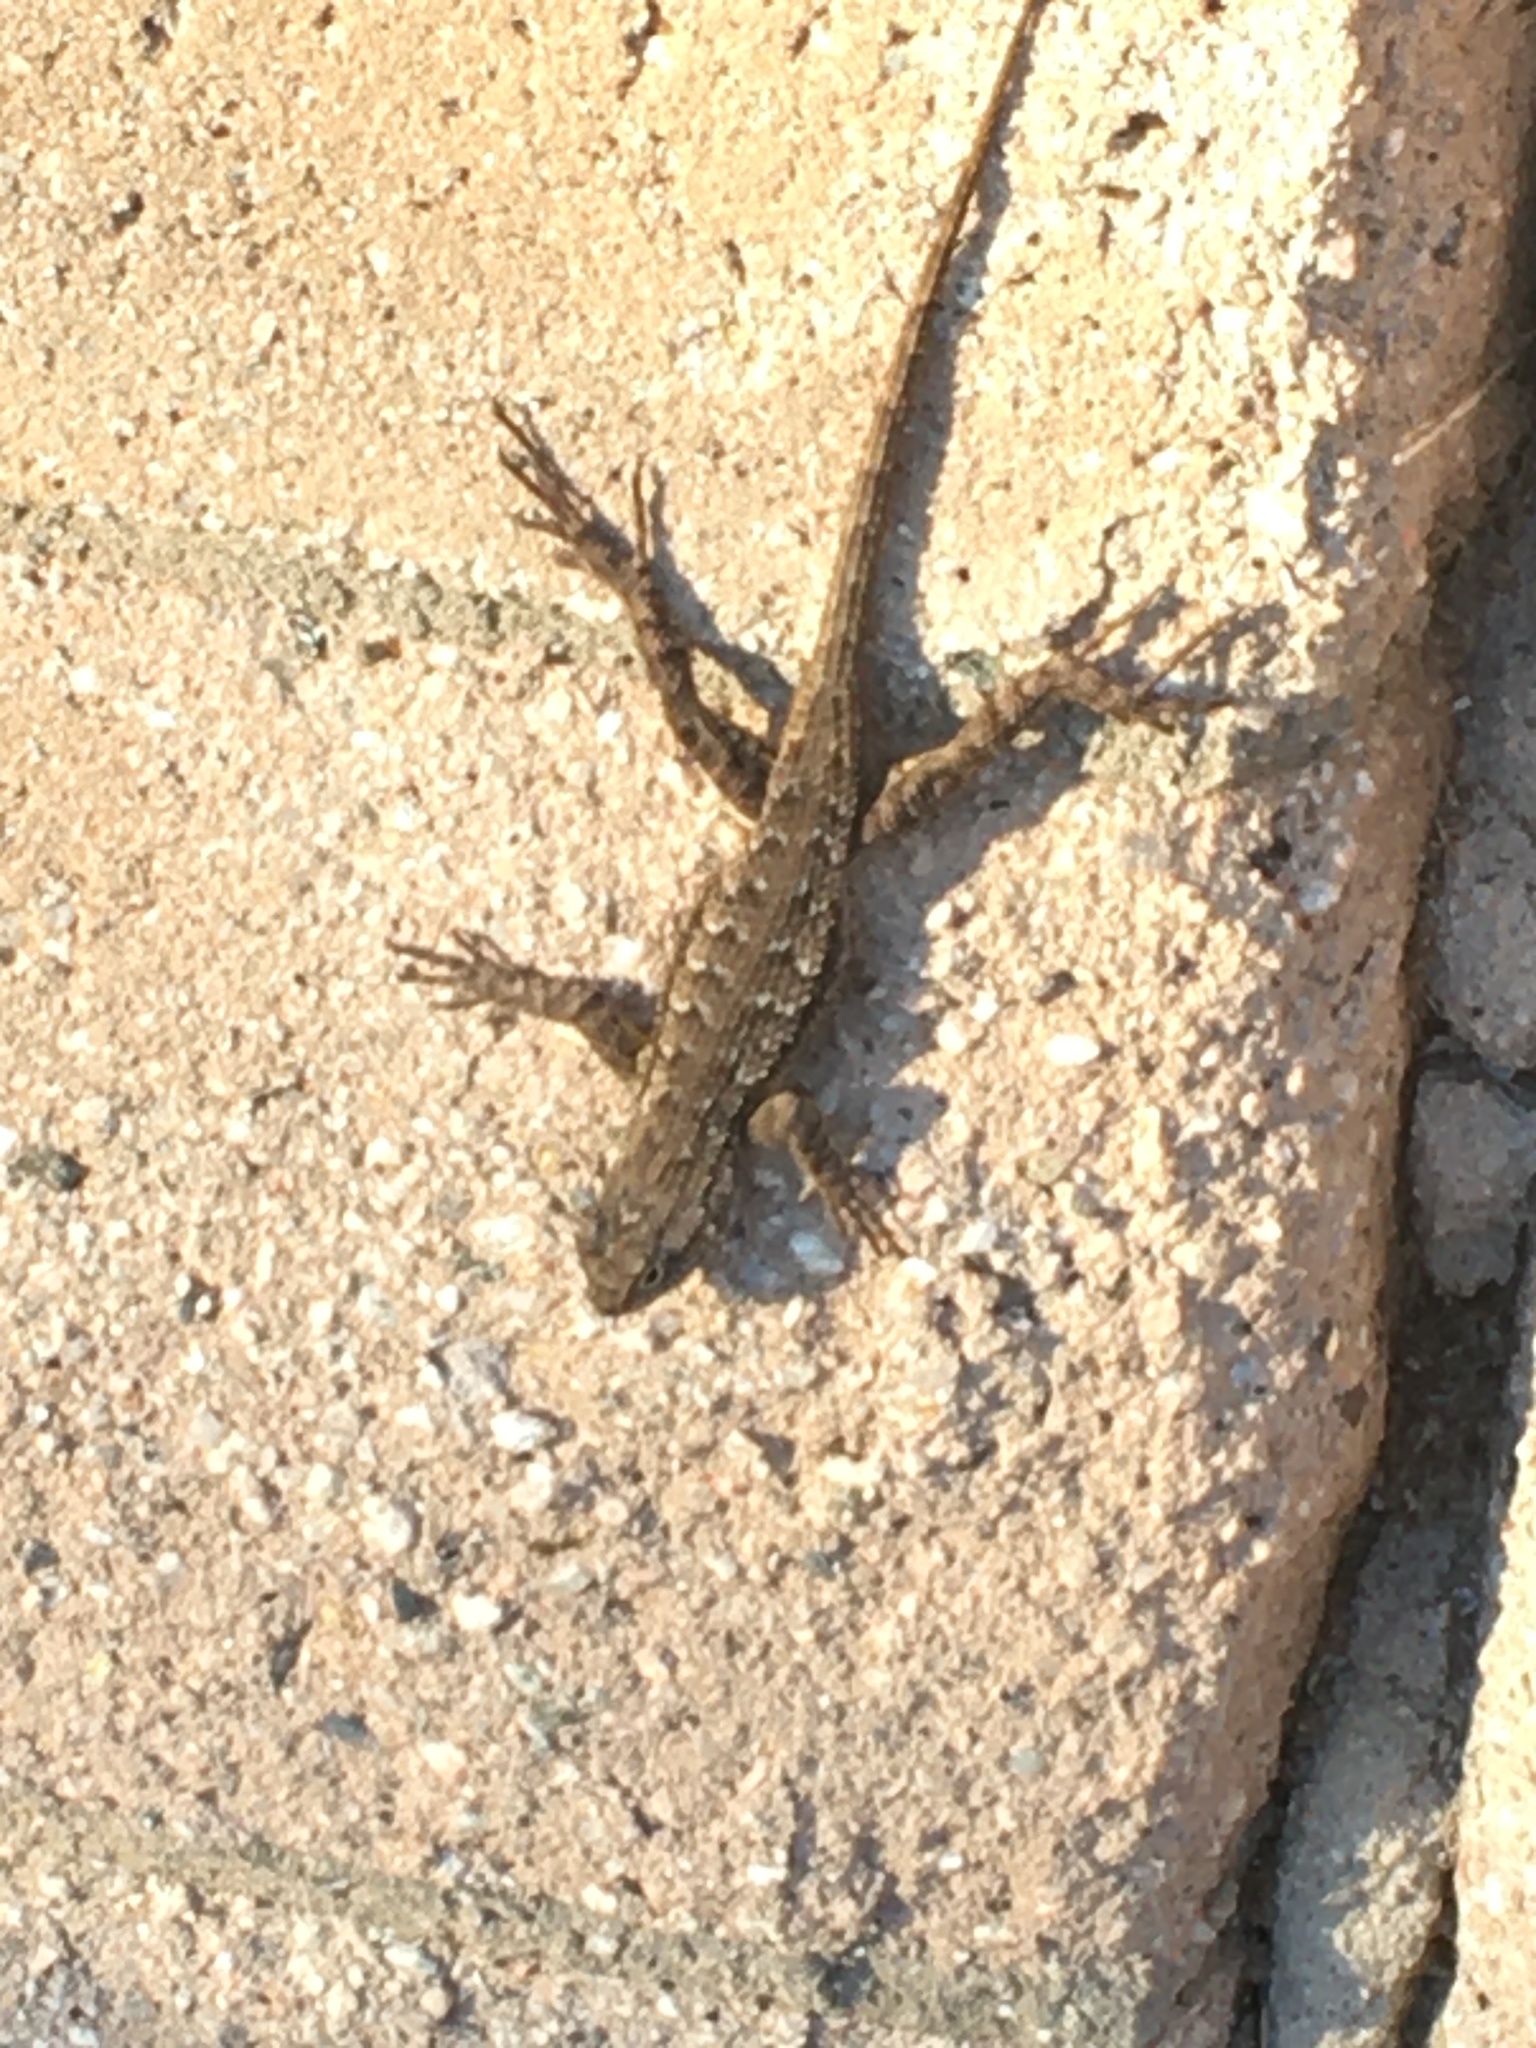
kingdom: Animalia
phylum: Chordata
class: Squamata
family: Phrynosomatidae
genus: Sceloporus
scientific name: Sceloporus occidentalis
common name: Western fence lizard
